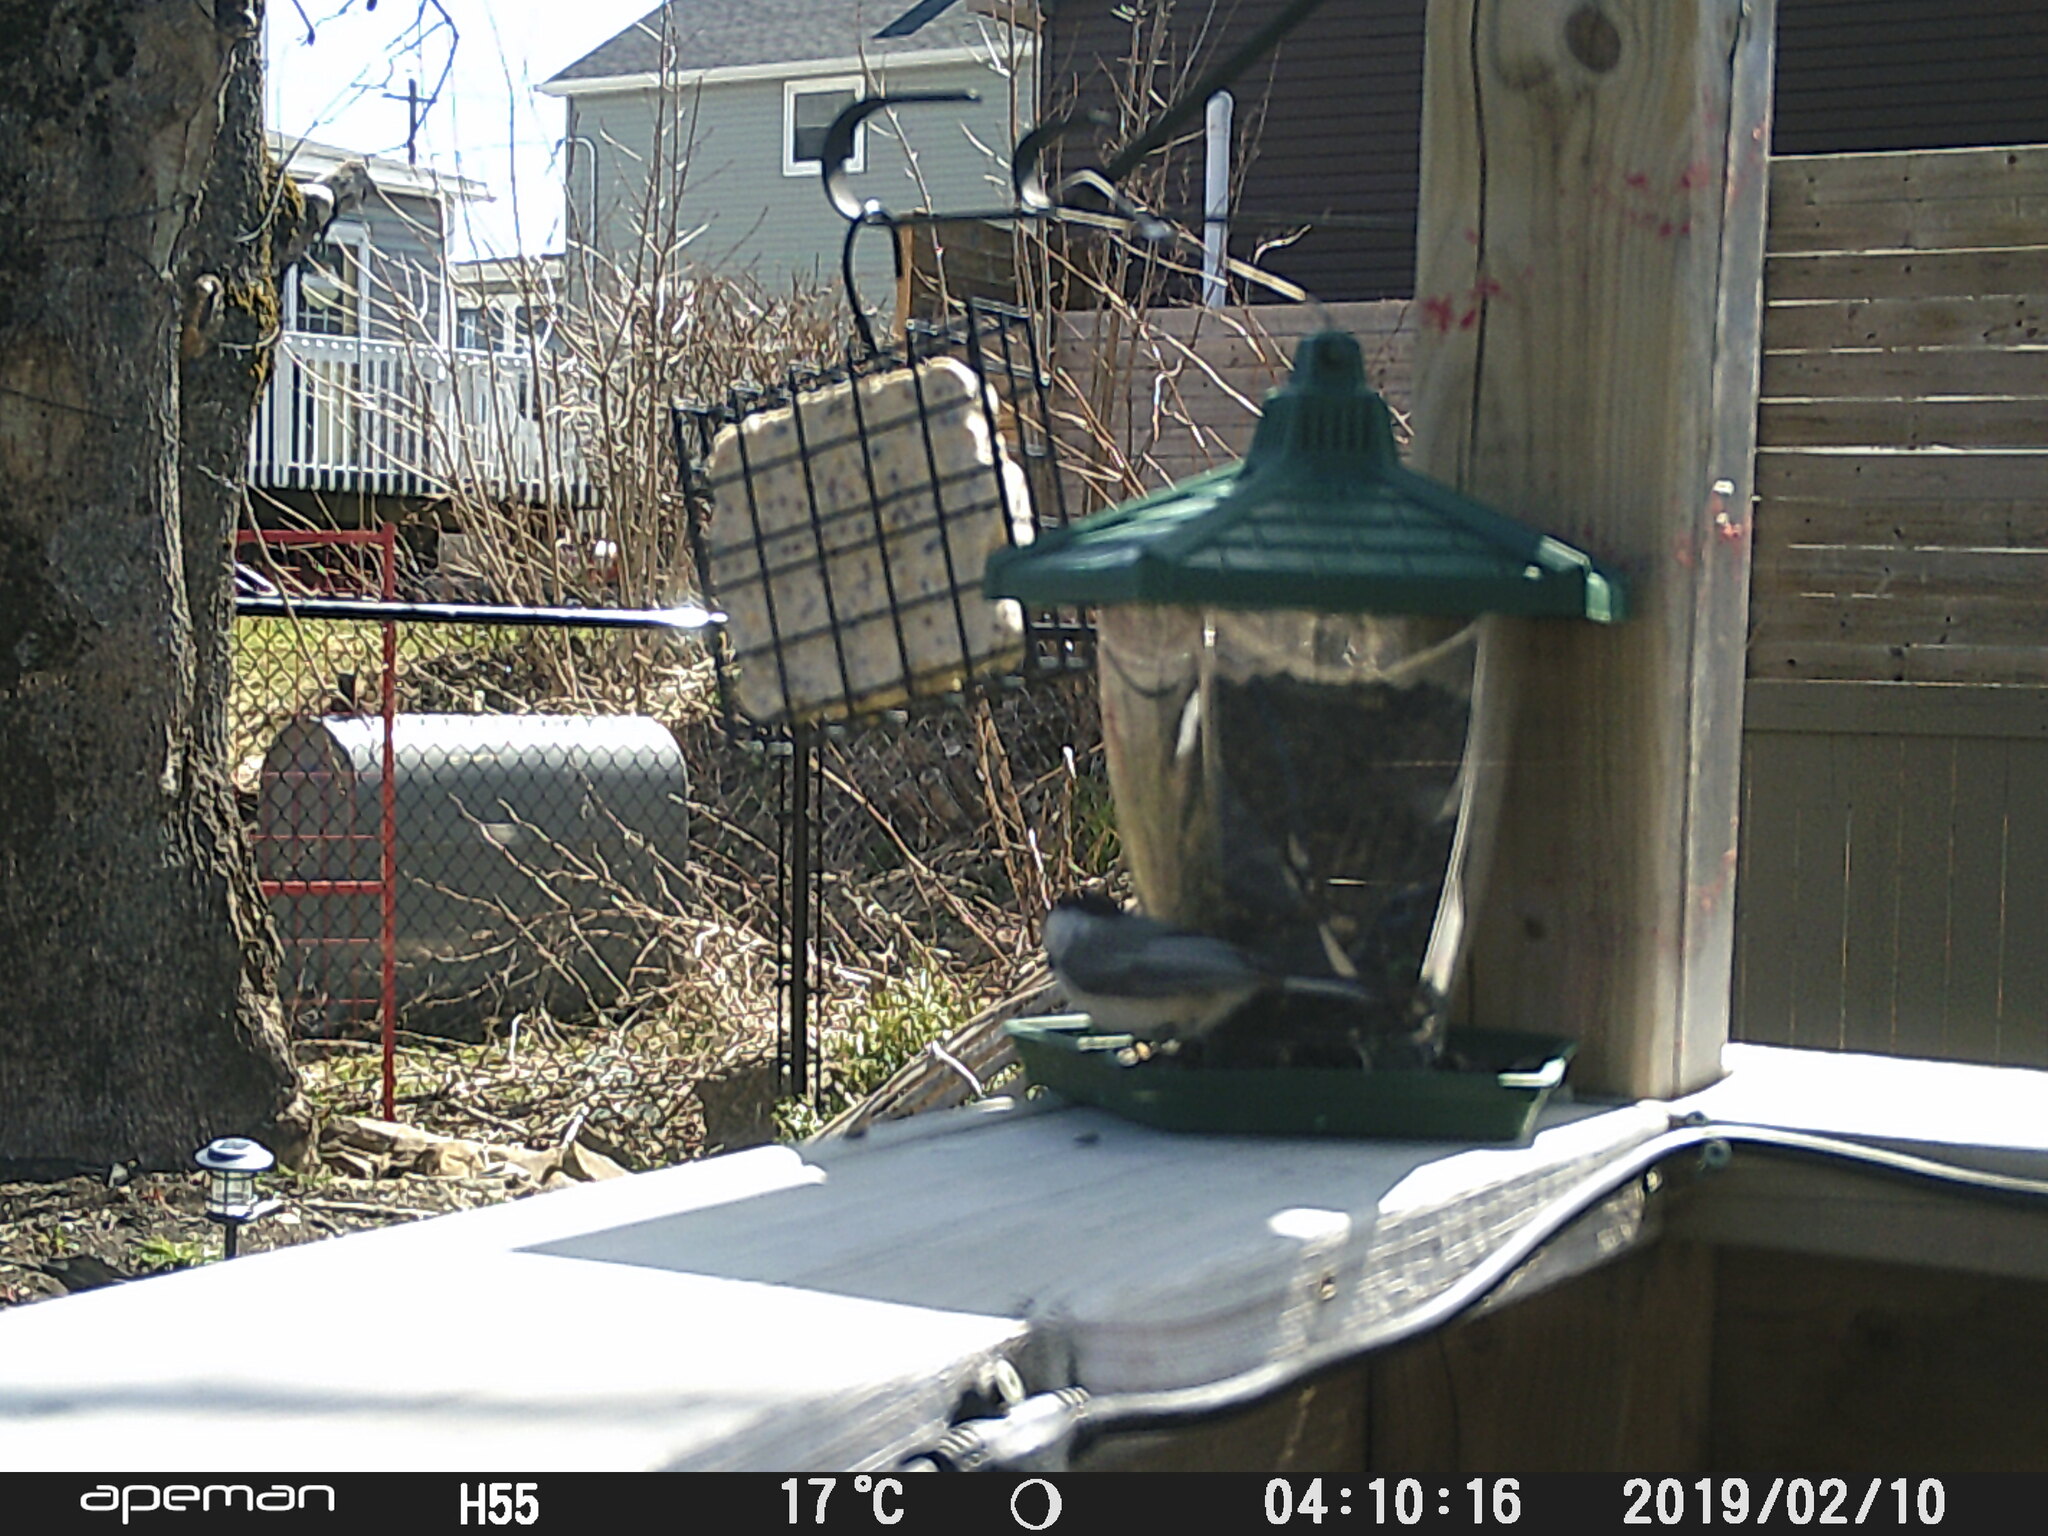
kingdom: Animalia
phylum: Chordata
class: Aves
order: Passeriformes
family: Paridae
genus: Poecile
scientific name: Poecile atricapillus
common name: Black-capped chickadee
